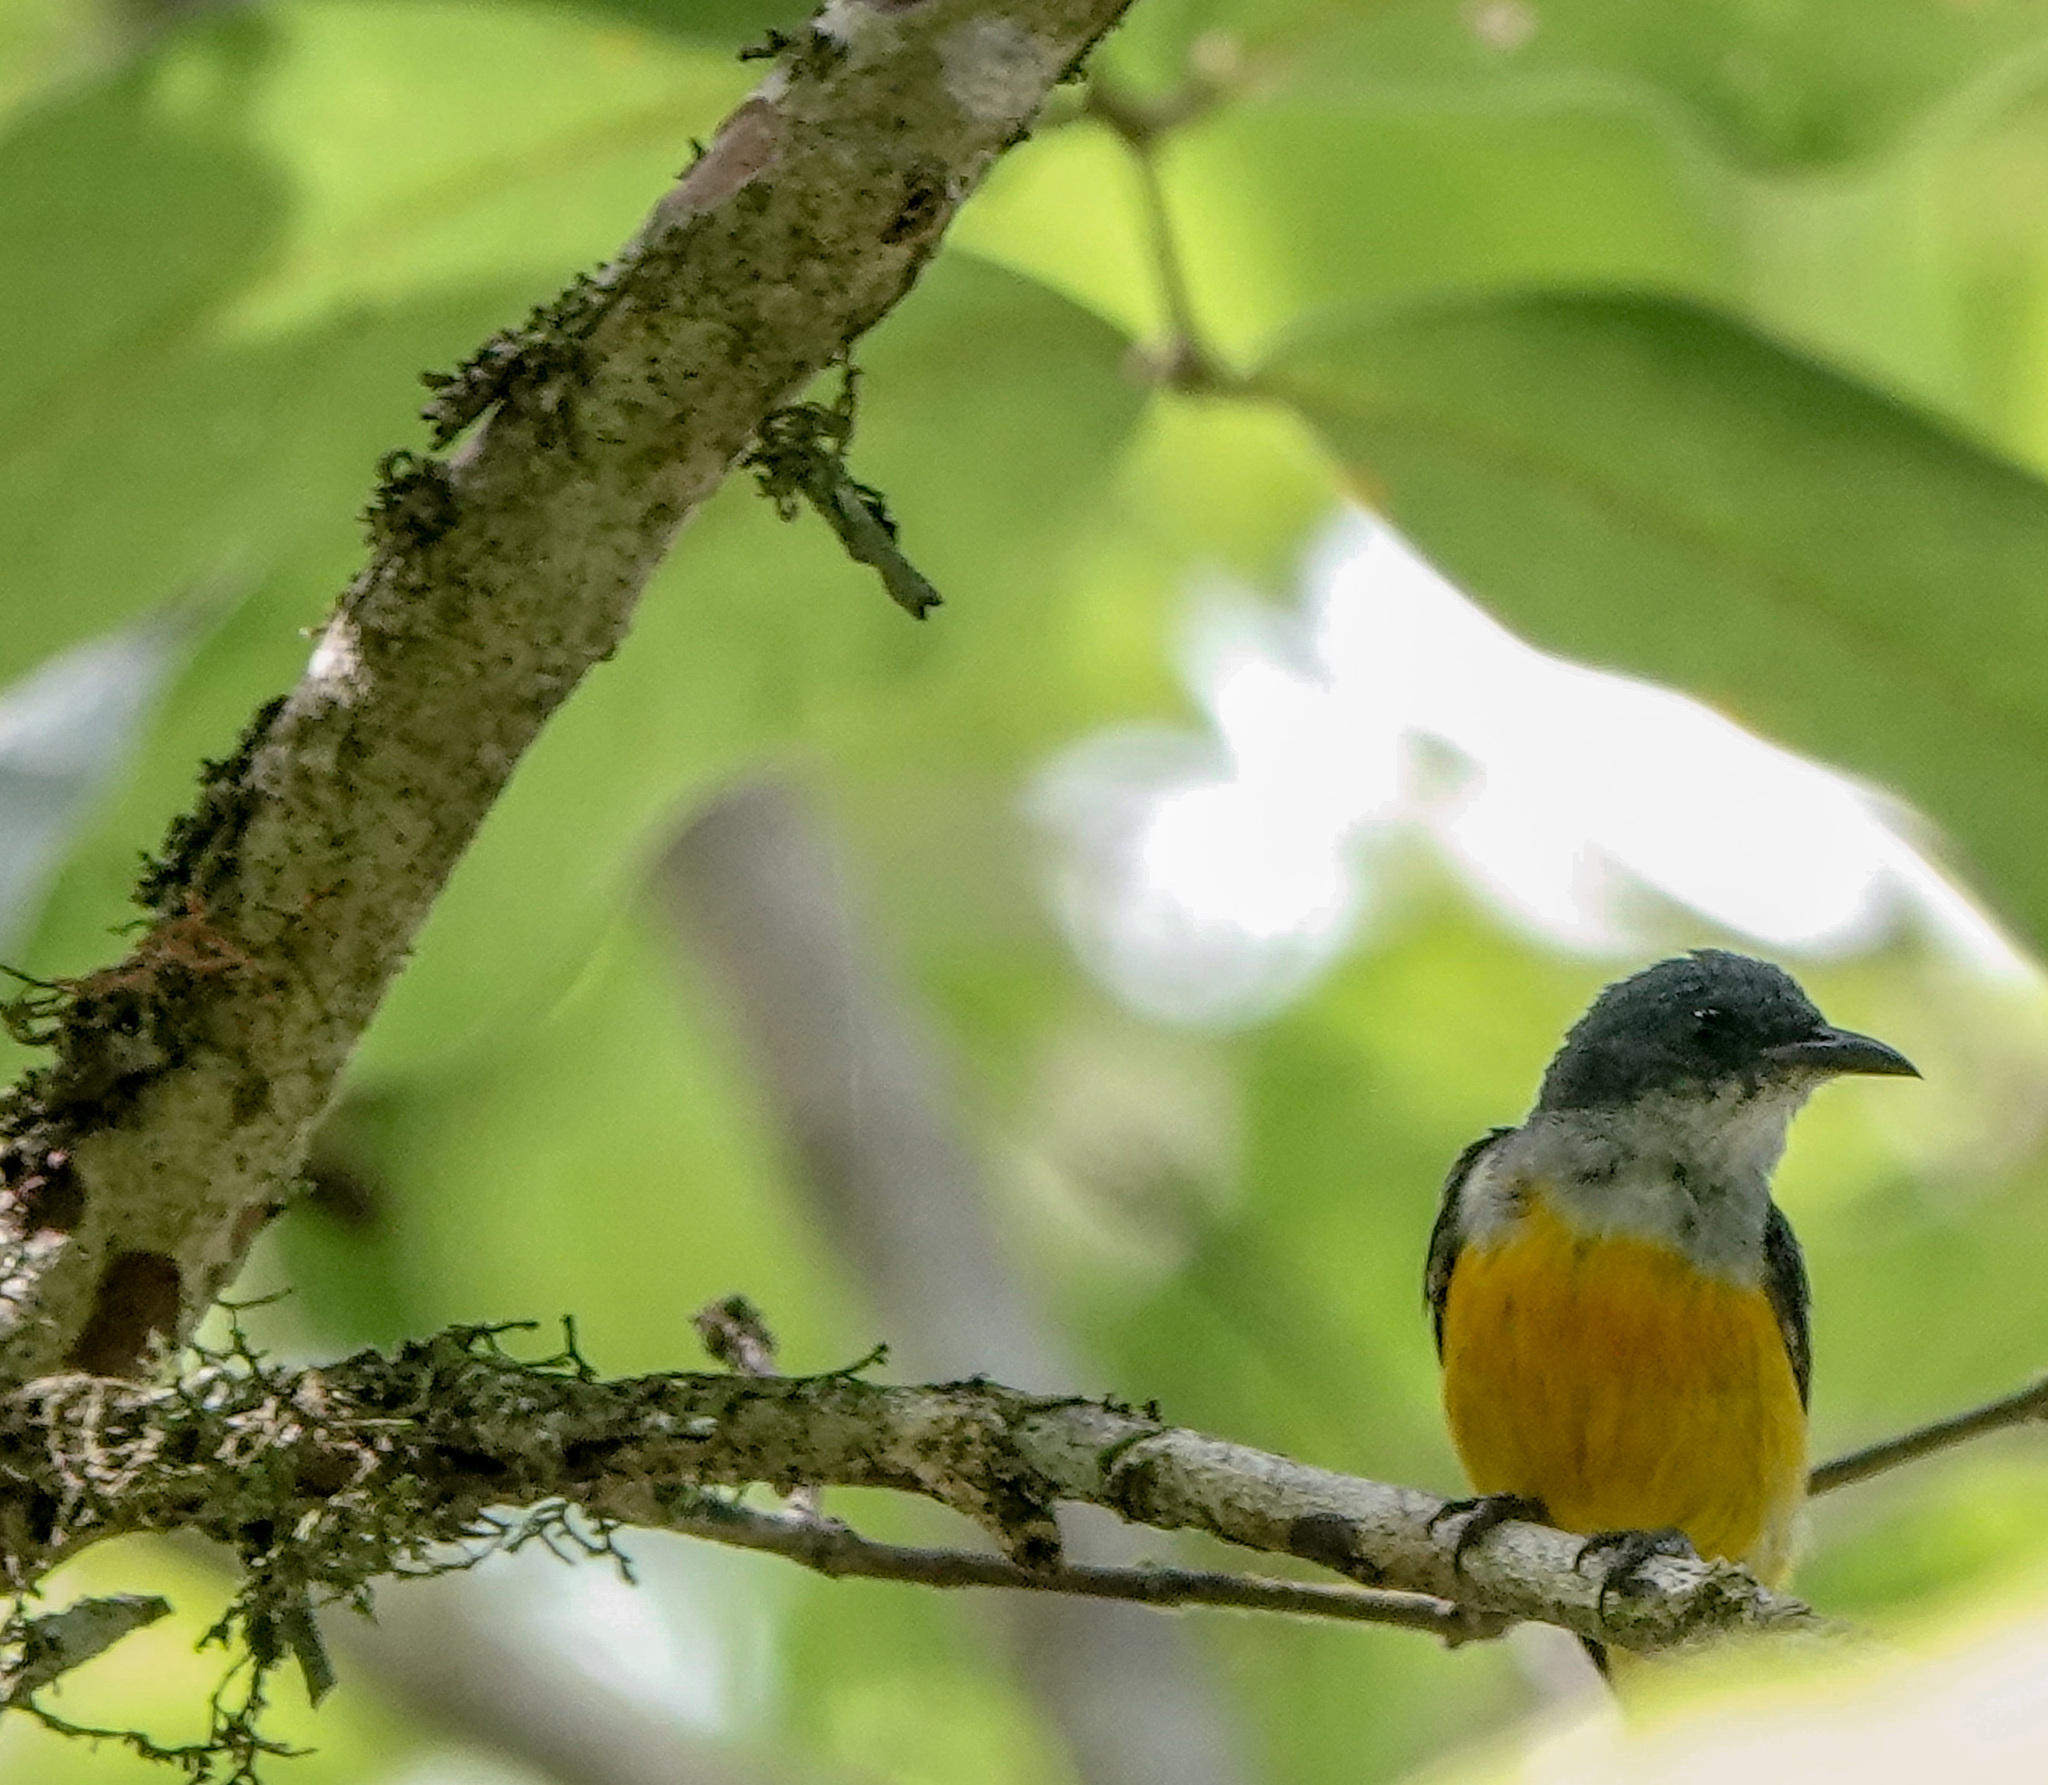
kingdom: Animalia
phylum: Chordata
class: Aves
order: Passeriformes
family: Dicaeidae
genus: Dicaeum
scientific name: Dicaeum trigonostigma
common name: Orange-bellied flowerpecker
